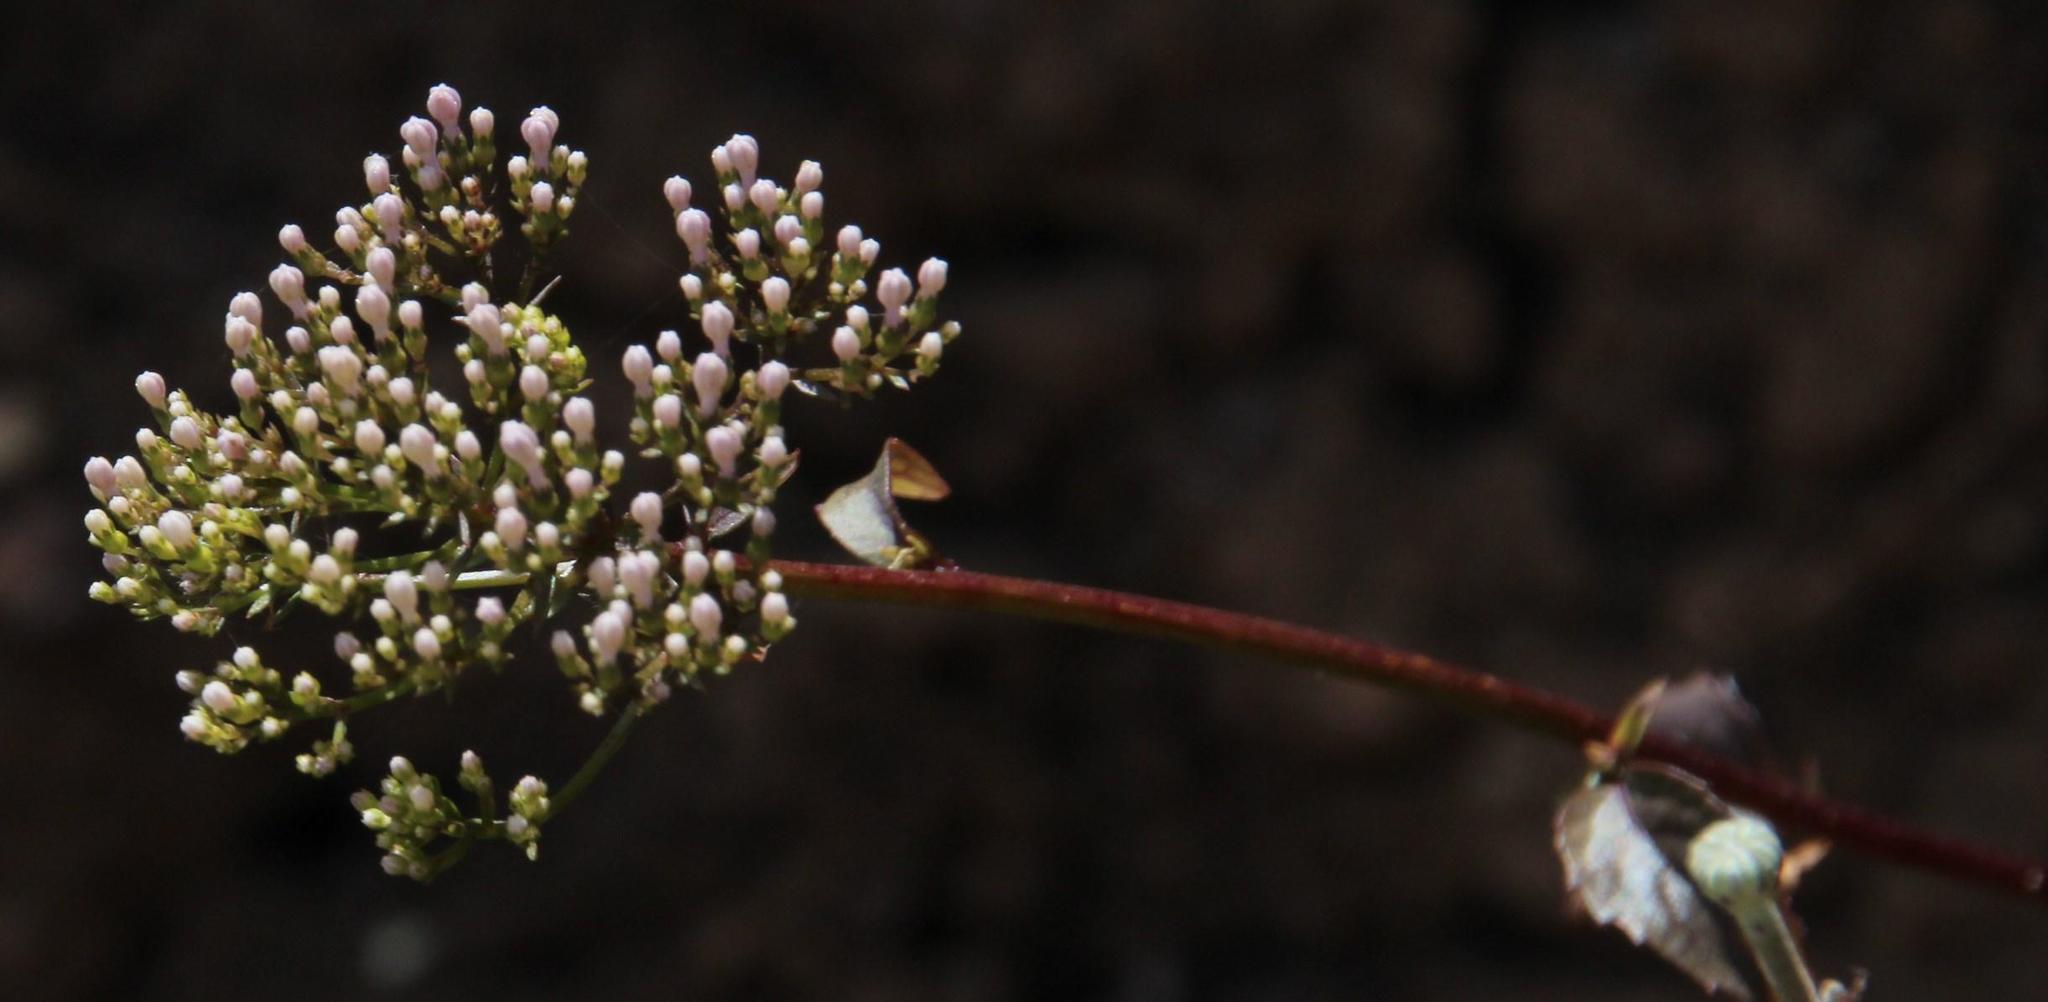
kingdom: Plantae
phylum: Tracheophyta
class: Magnoliopsida
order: Asterales
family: Campanulaceae
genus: Trachelium
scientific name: Trachelium caeruleum
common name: Throatwort
